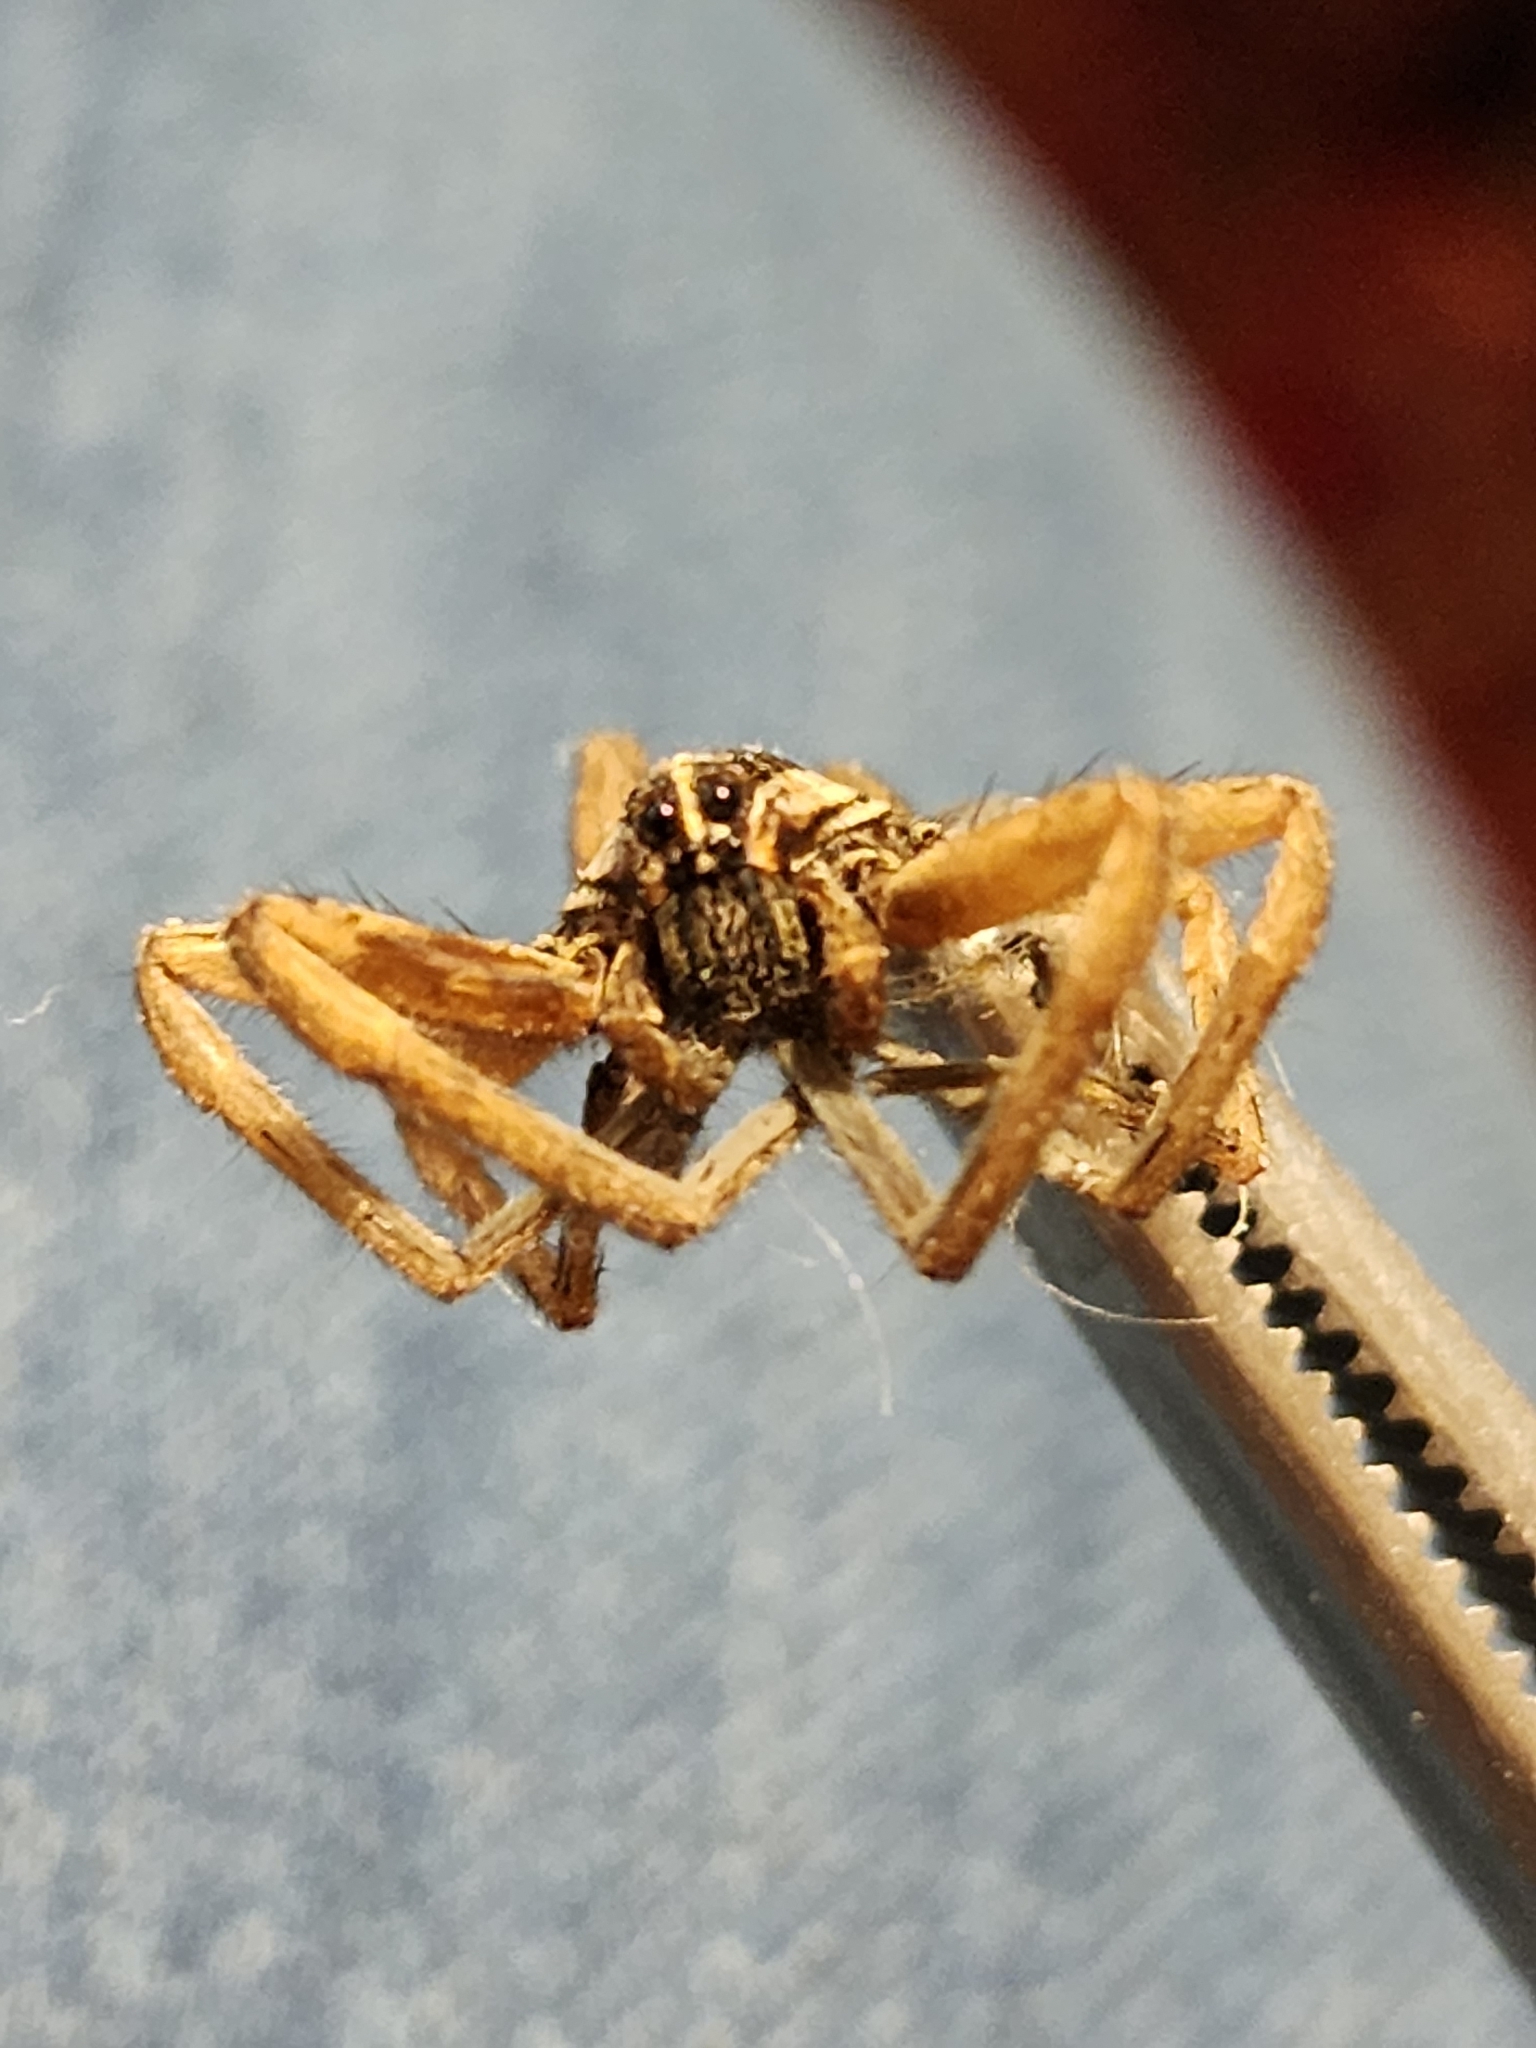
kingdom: Animalia
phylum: Arthropoda
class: Arachnida
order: Araneae
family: Lycosidae
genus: Rabidosa
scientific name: Rabidosa punctulata
